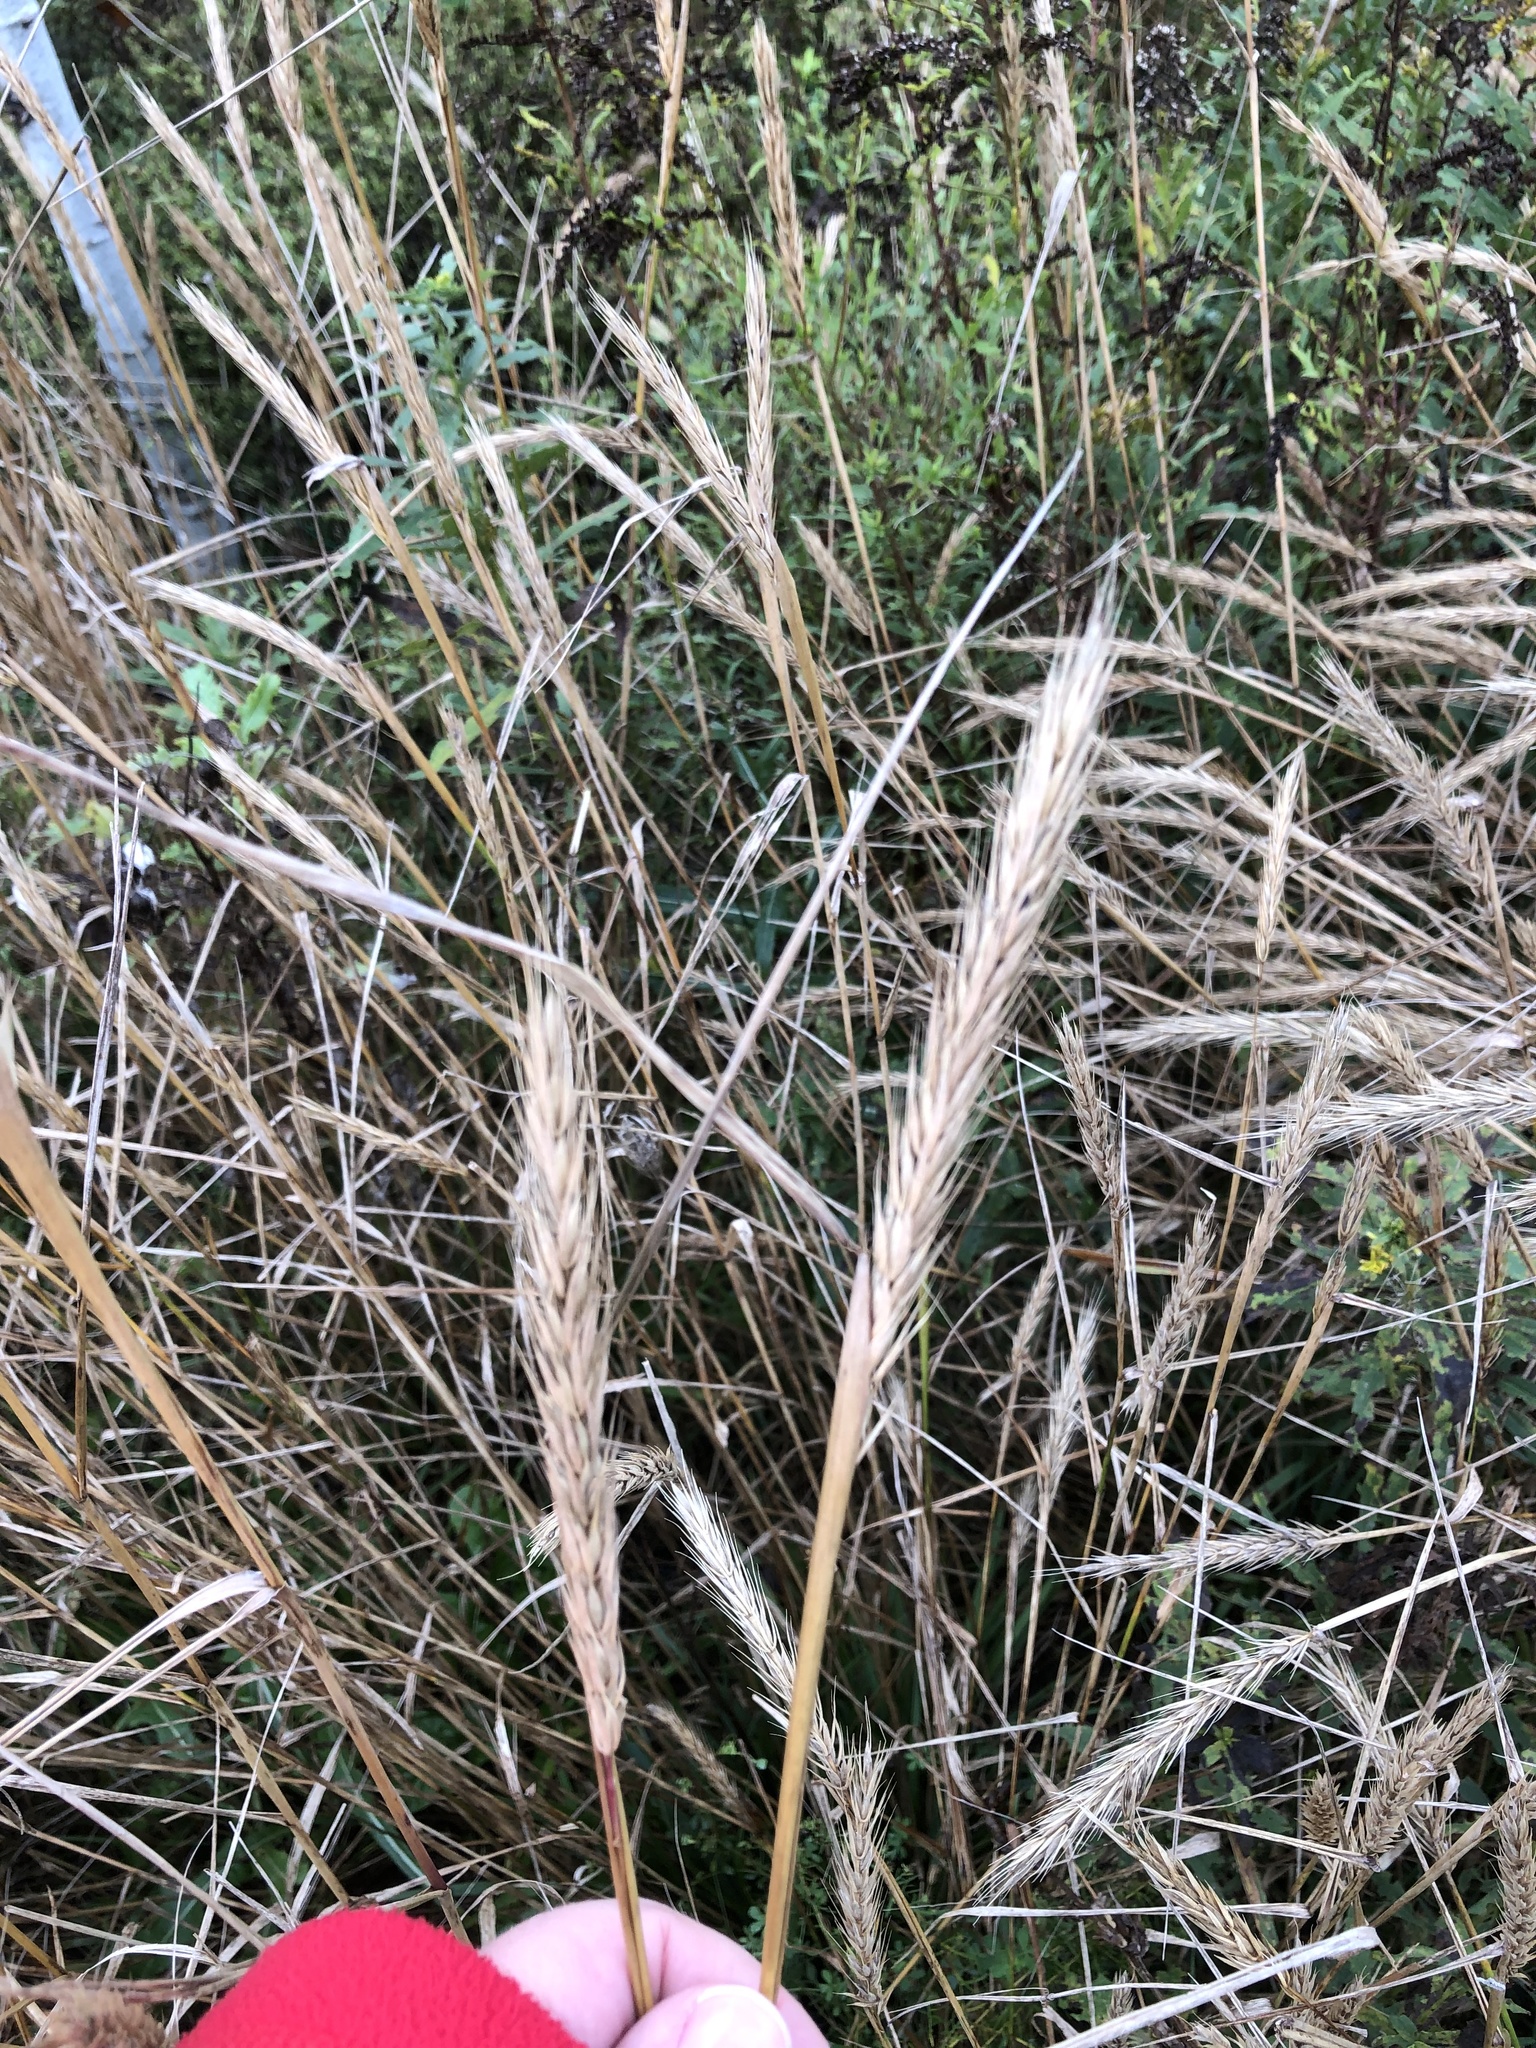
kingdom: Plantae
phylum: Tracheophyta
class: Liliopsida
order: Poales
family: Poaceae
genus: Elymus
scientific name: Elymus virginicus
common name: Common eastern wildrye
